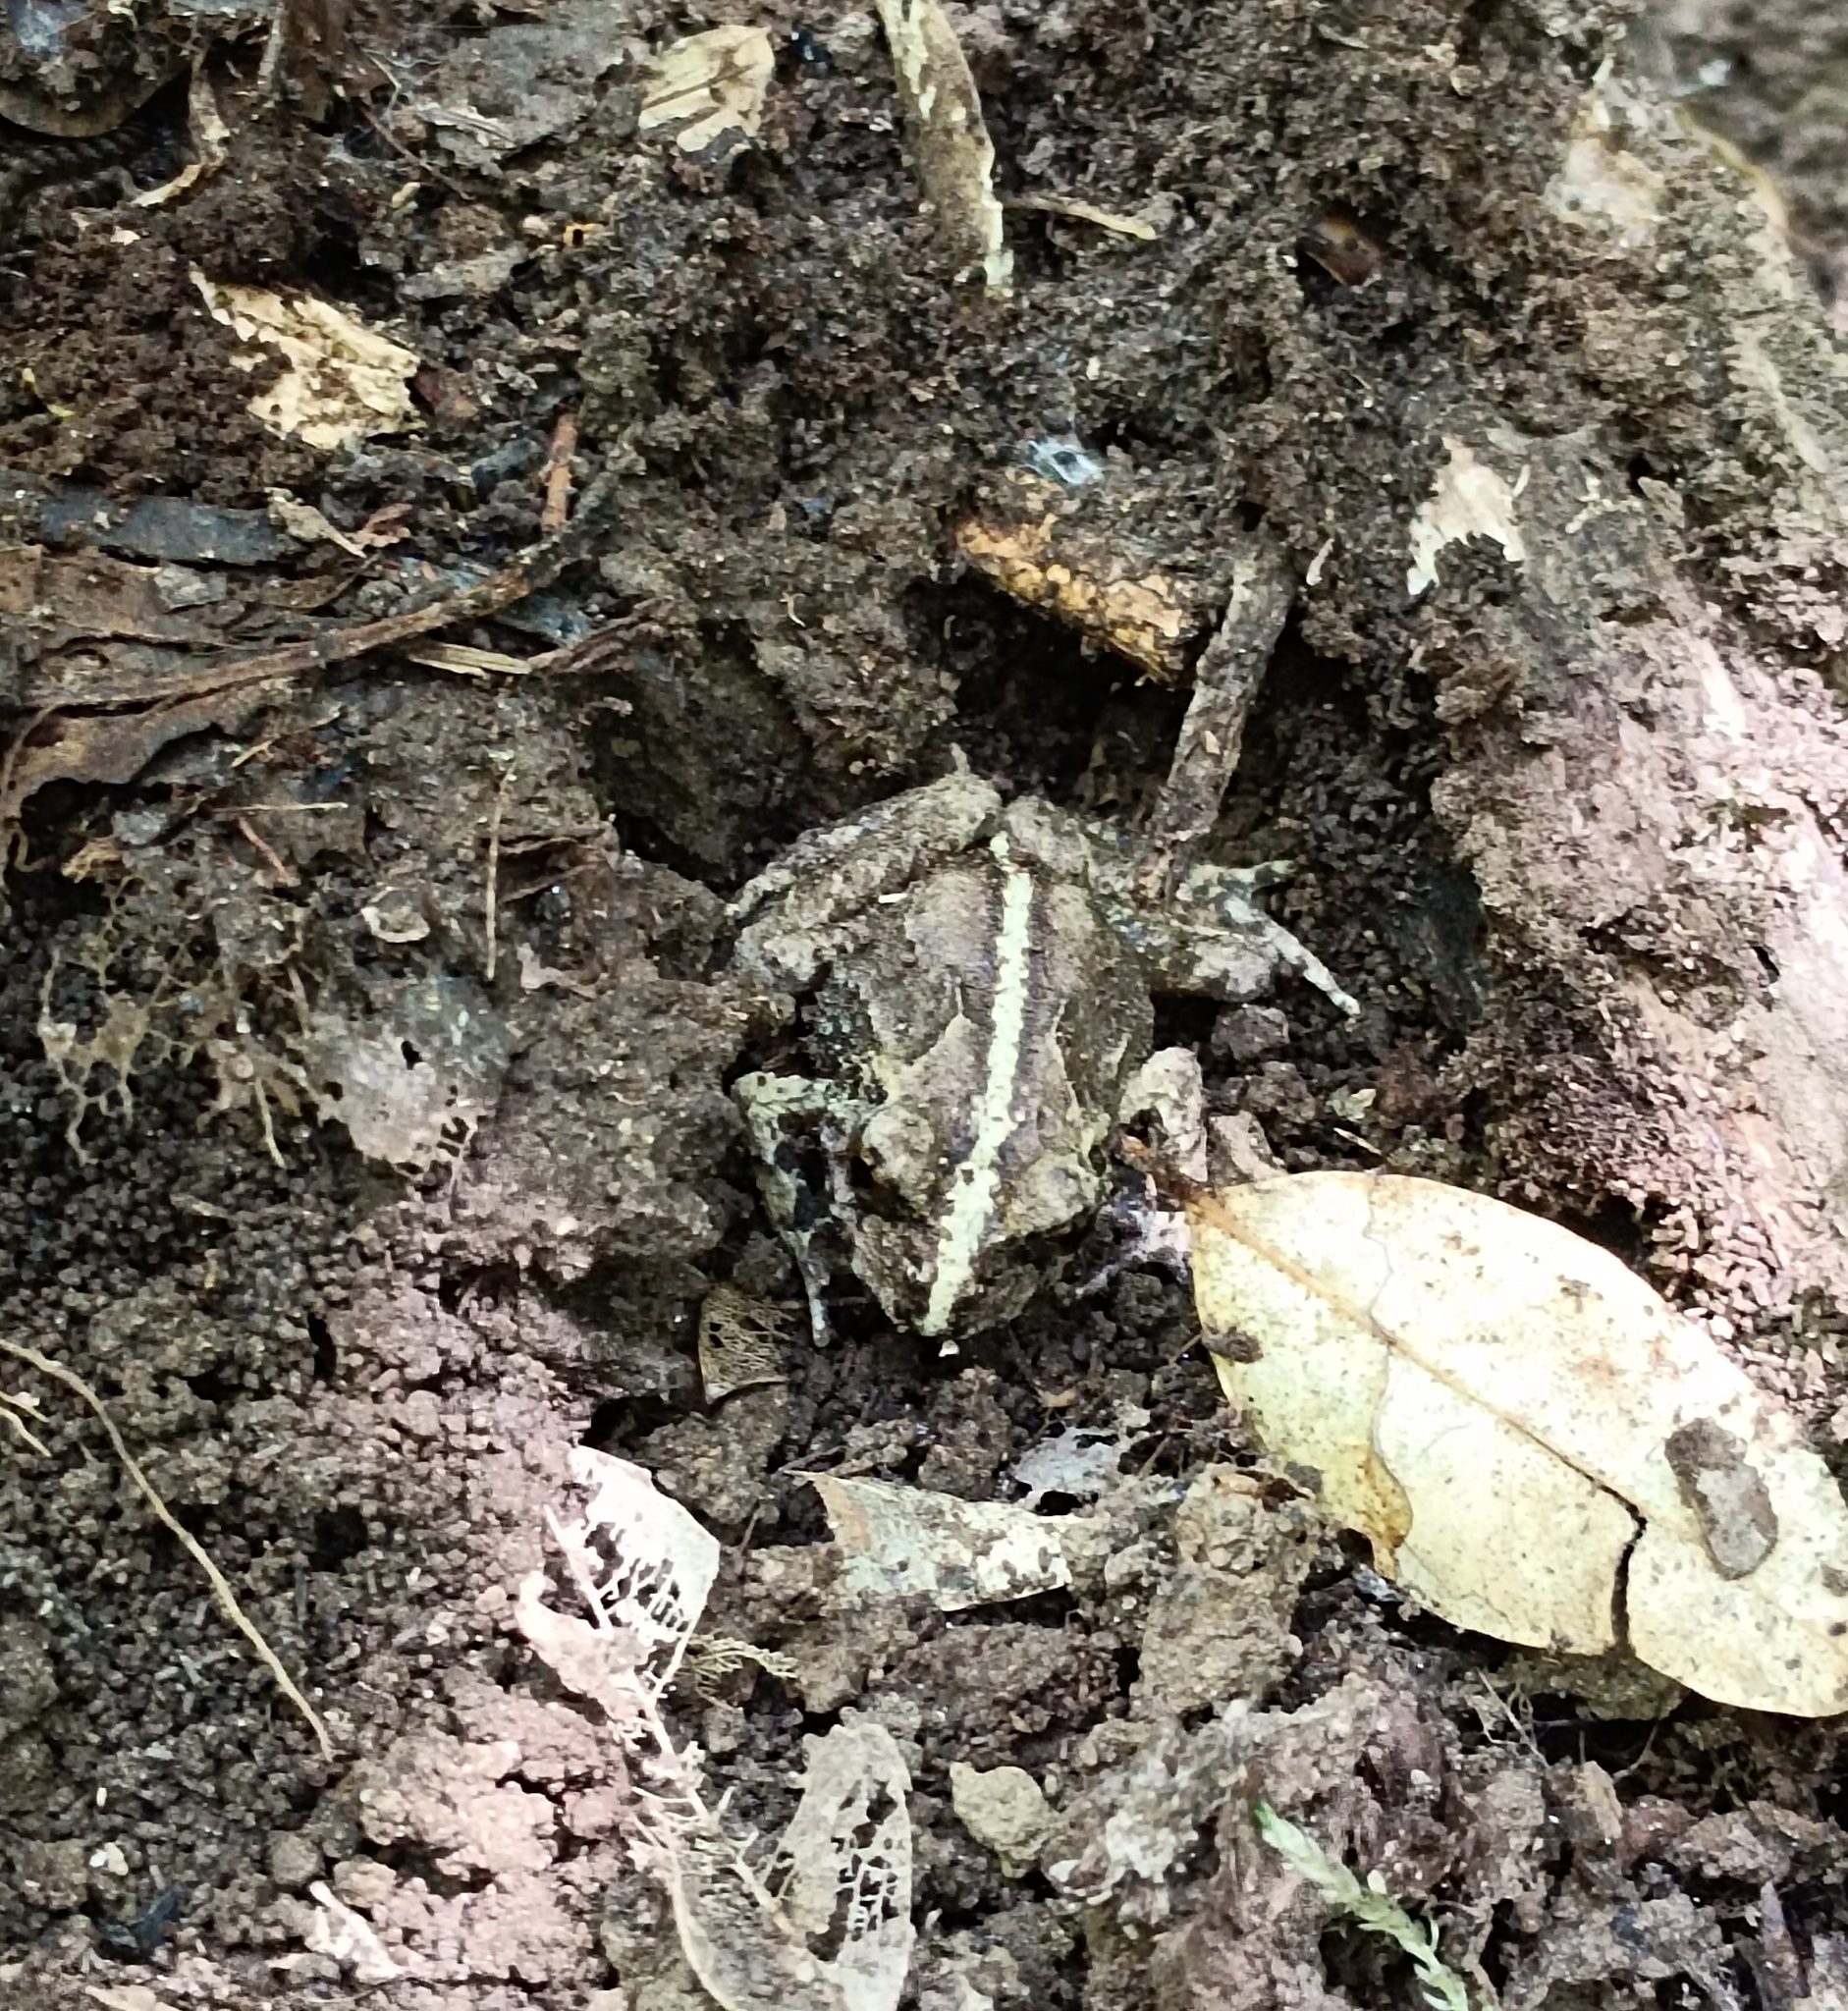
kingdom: Animalia
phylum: Chordata
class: Amphibia
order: Anura
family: Alsodidae
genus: Eupsophus
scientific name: Eupsophus vertebralis
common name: Valdivia ground frog
